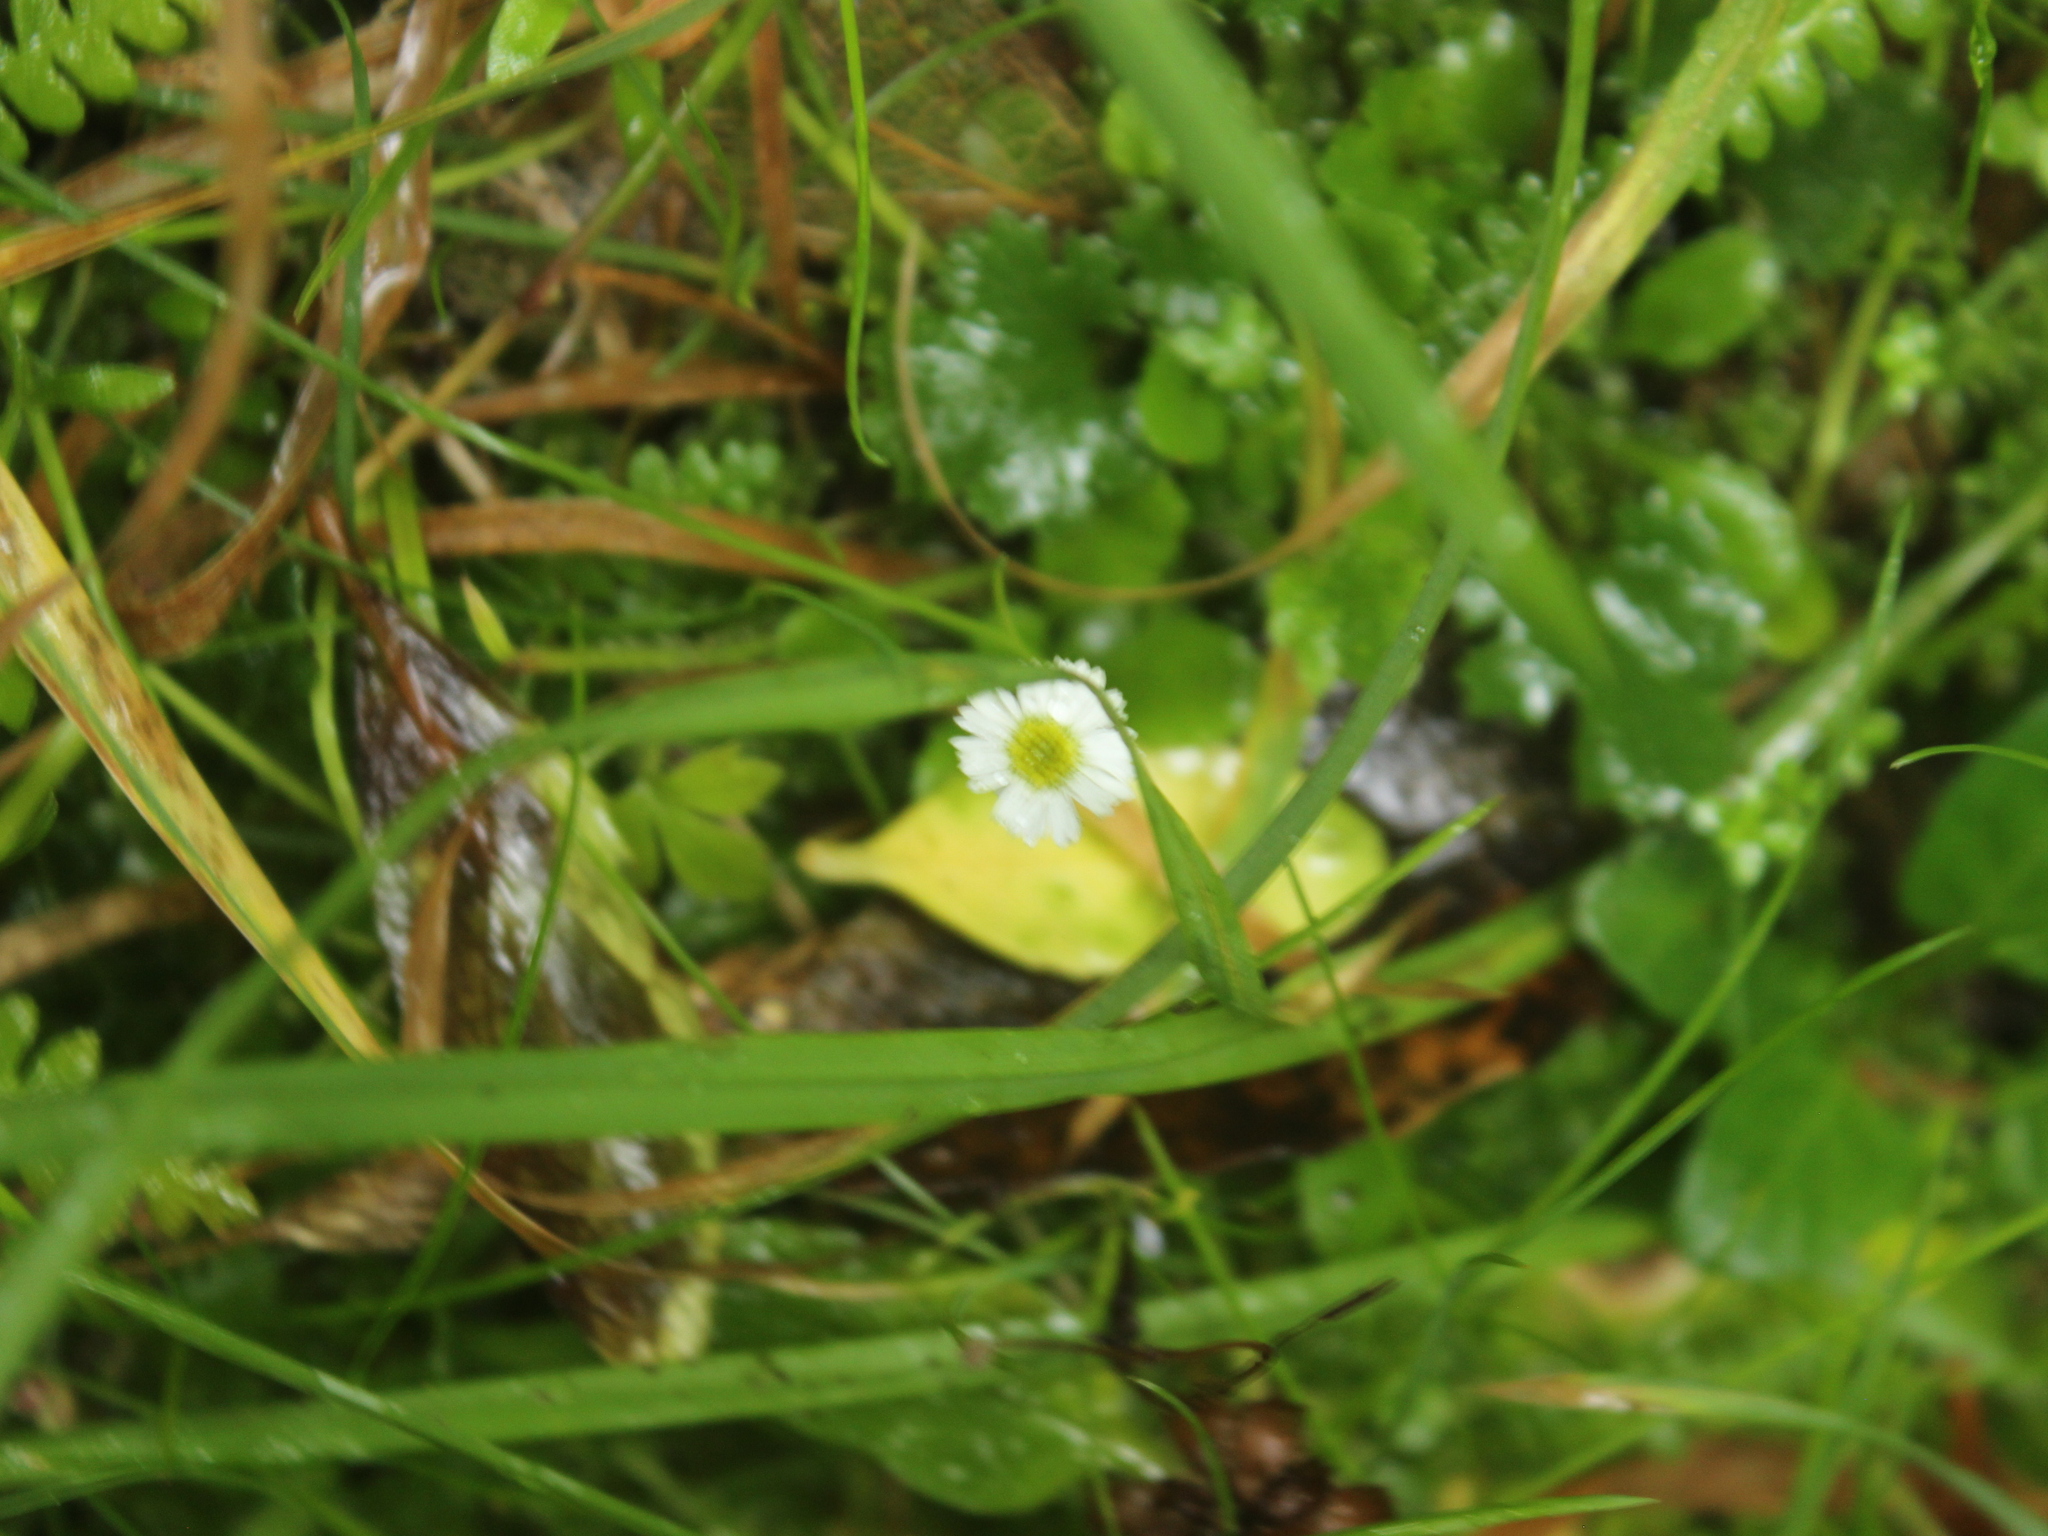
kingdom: Plantae
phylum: Tracheophyta
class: Magnoliopsida
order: Asterales
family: Asteraceae
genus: Lagenophora
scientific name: Lagenophora pumila
